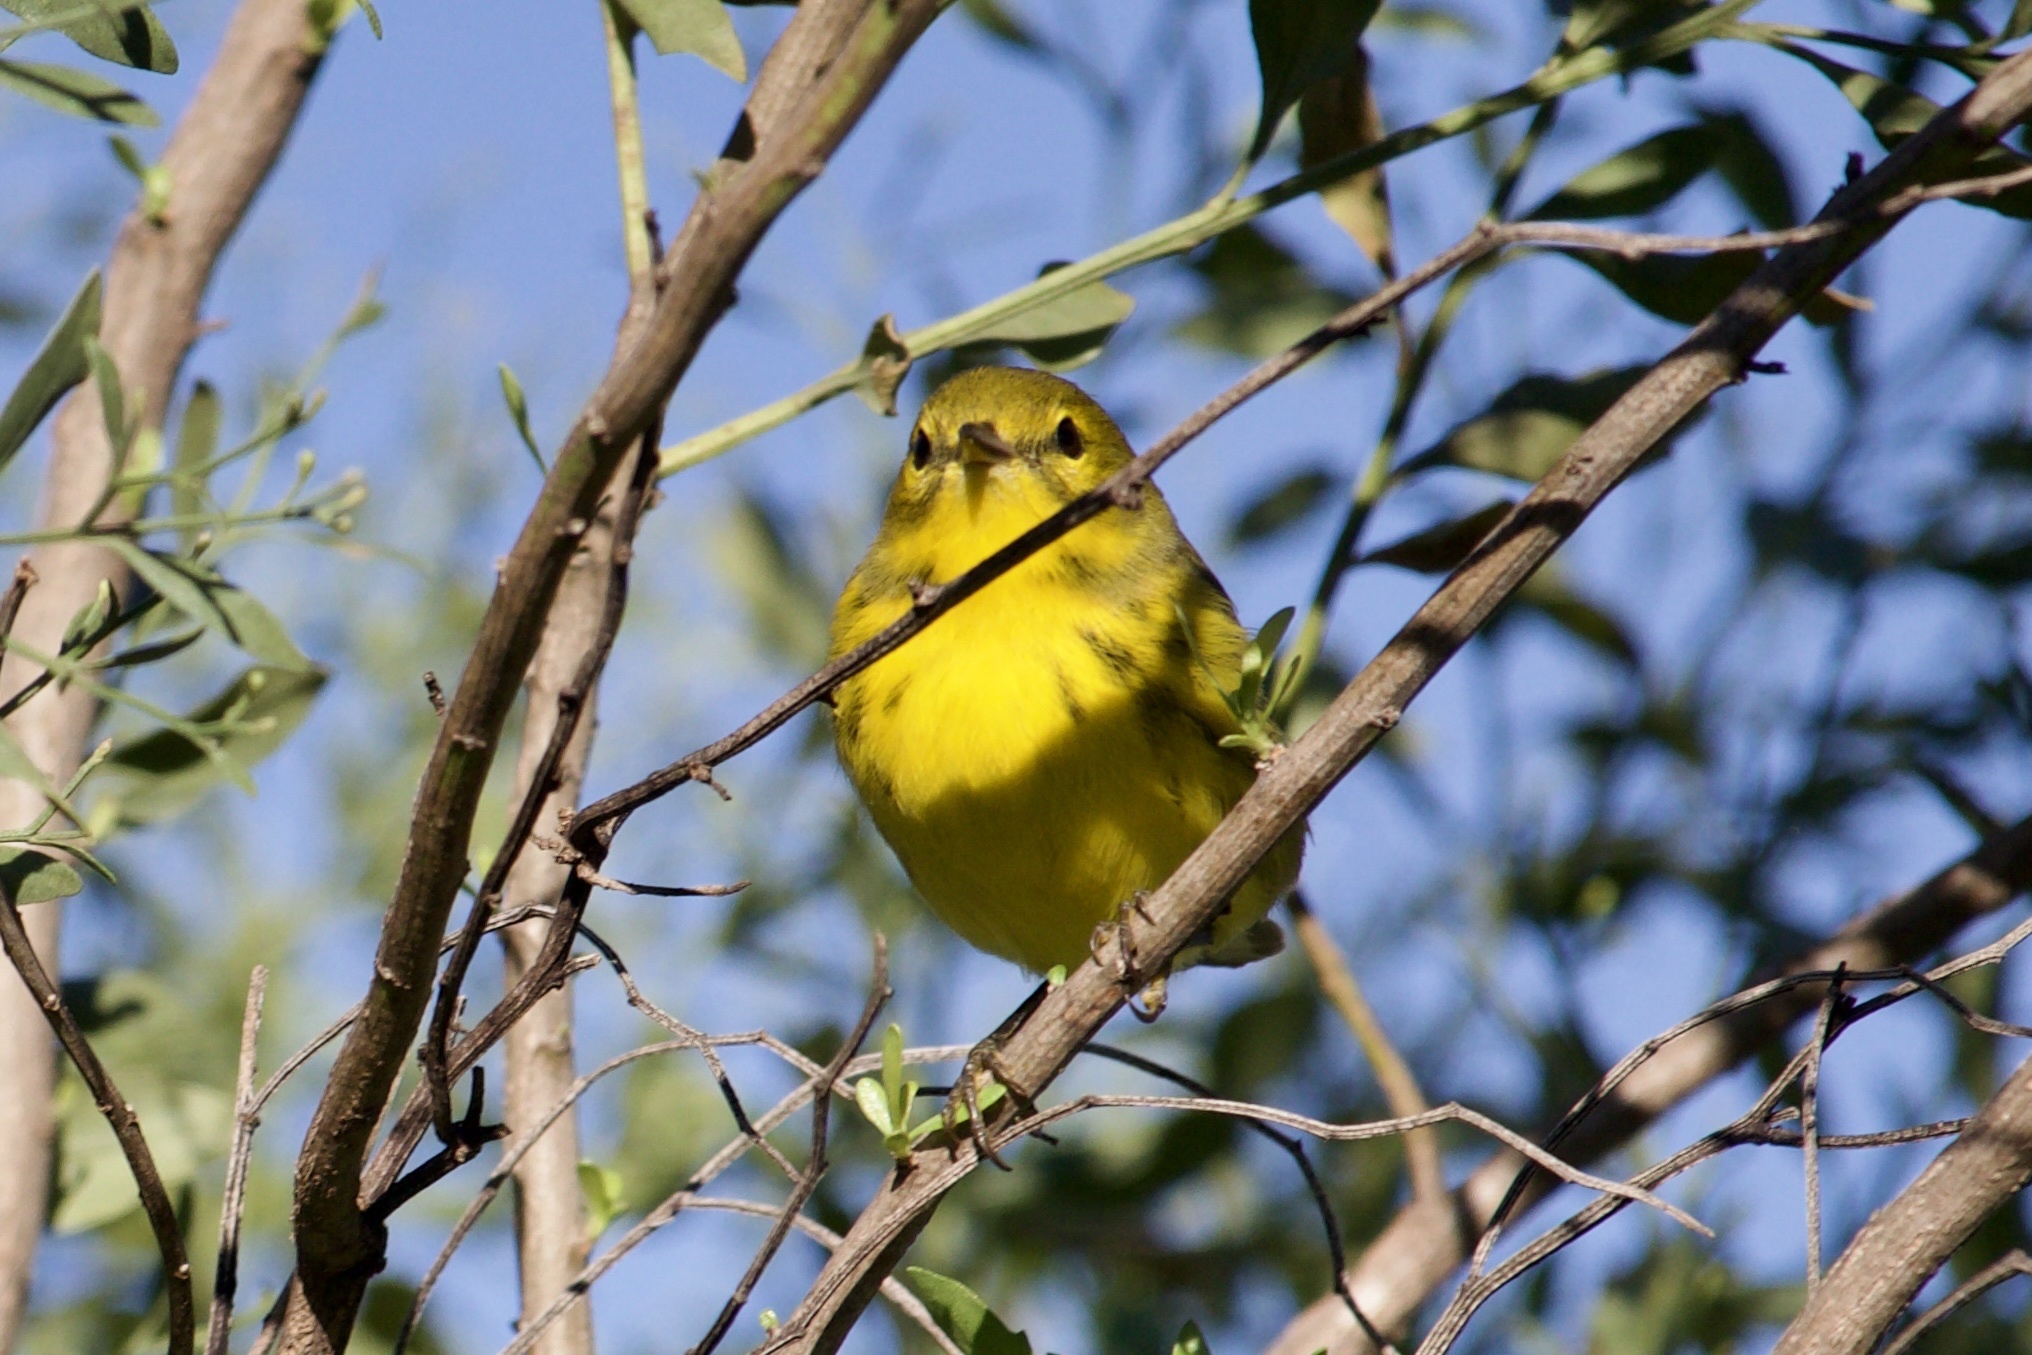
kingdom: Animalia
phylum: Chordata
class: Aves
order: Passeriformes
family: Parulidae
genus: Setophaga
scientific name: Setophaga discolor
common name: Prairie warbler
